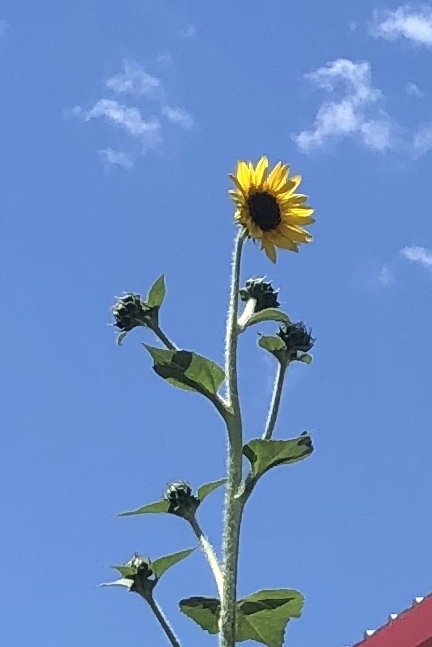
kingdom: Plantae
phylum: Tracheophyta
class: Magnoliopsida
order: Asterales
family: Asteraceae
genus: Helianthus
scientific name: Helianthus annuus
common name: Sunflower
